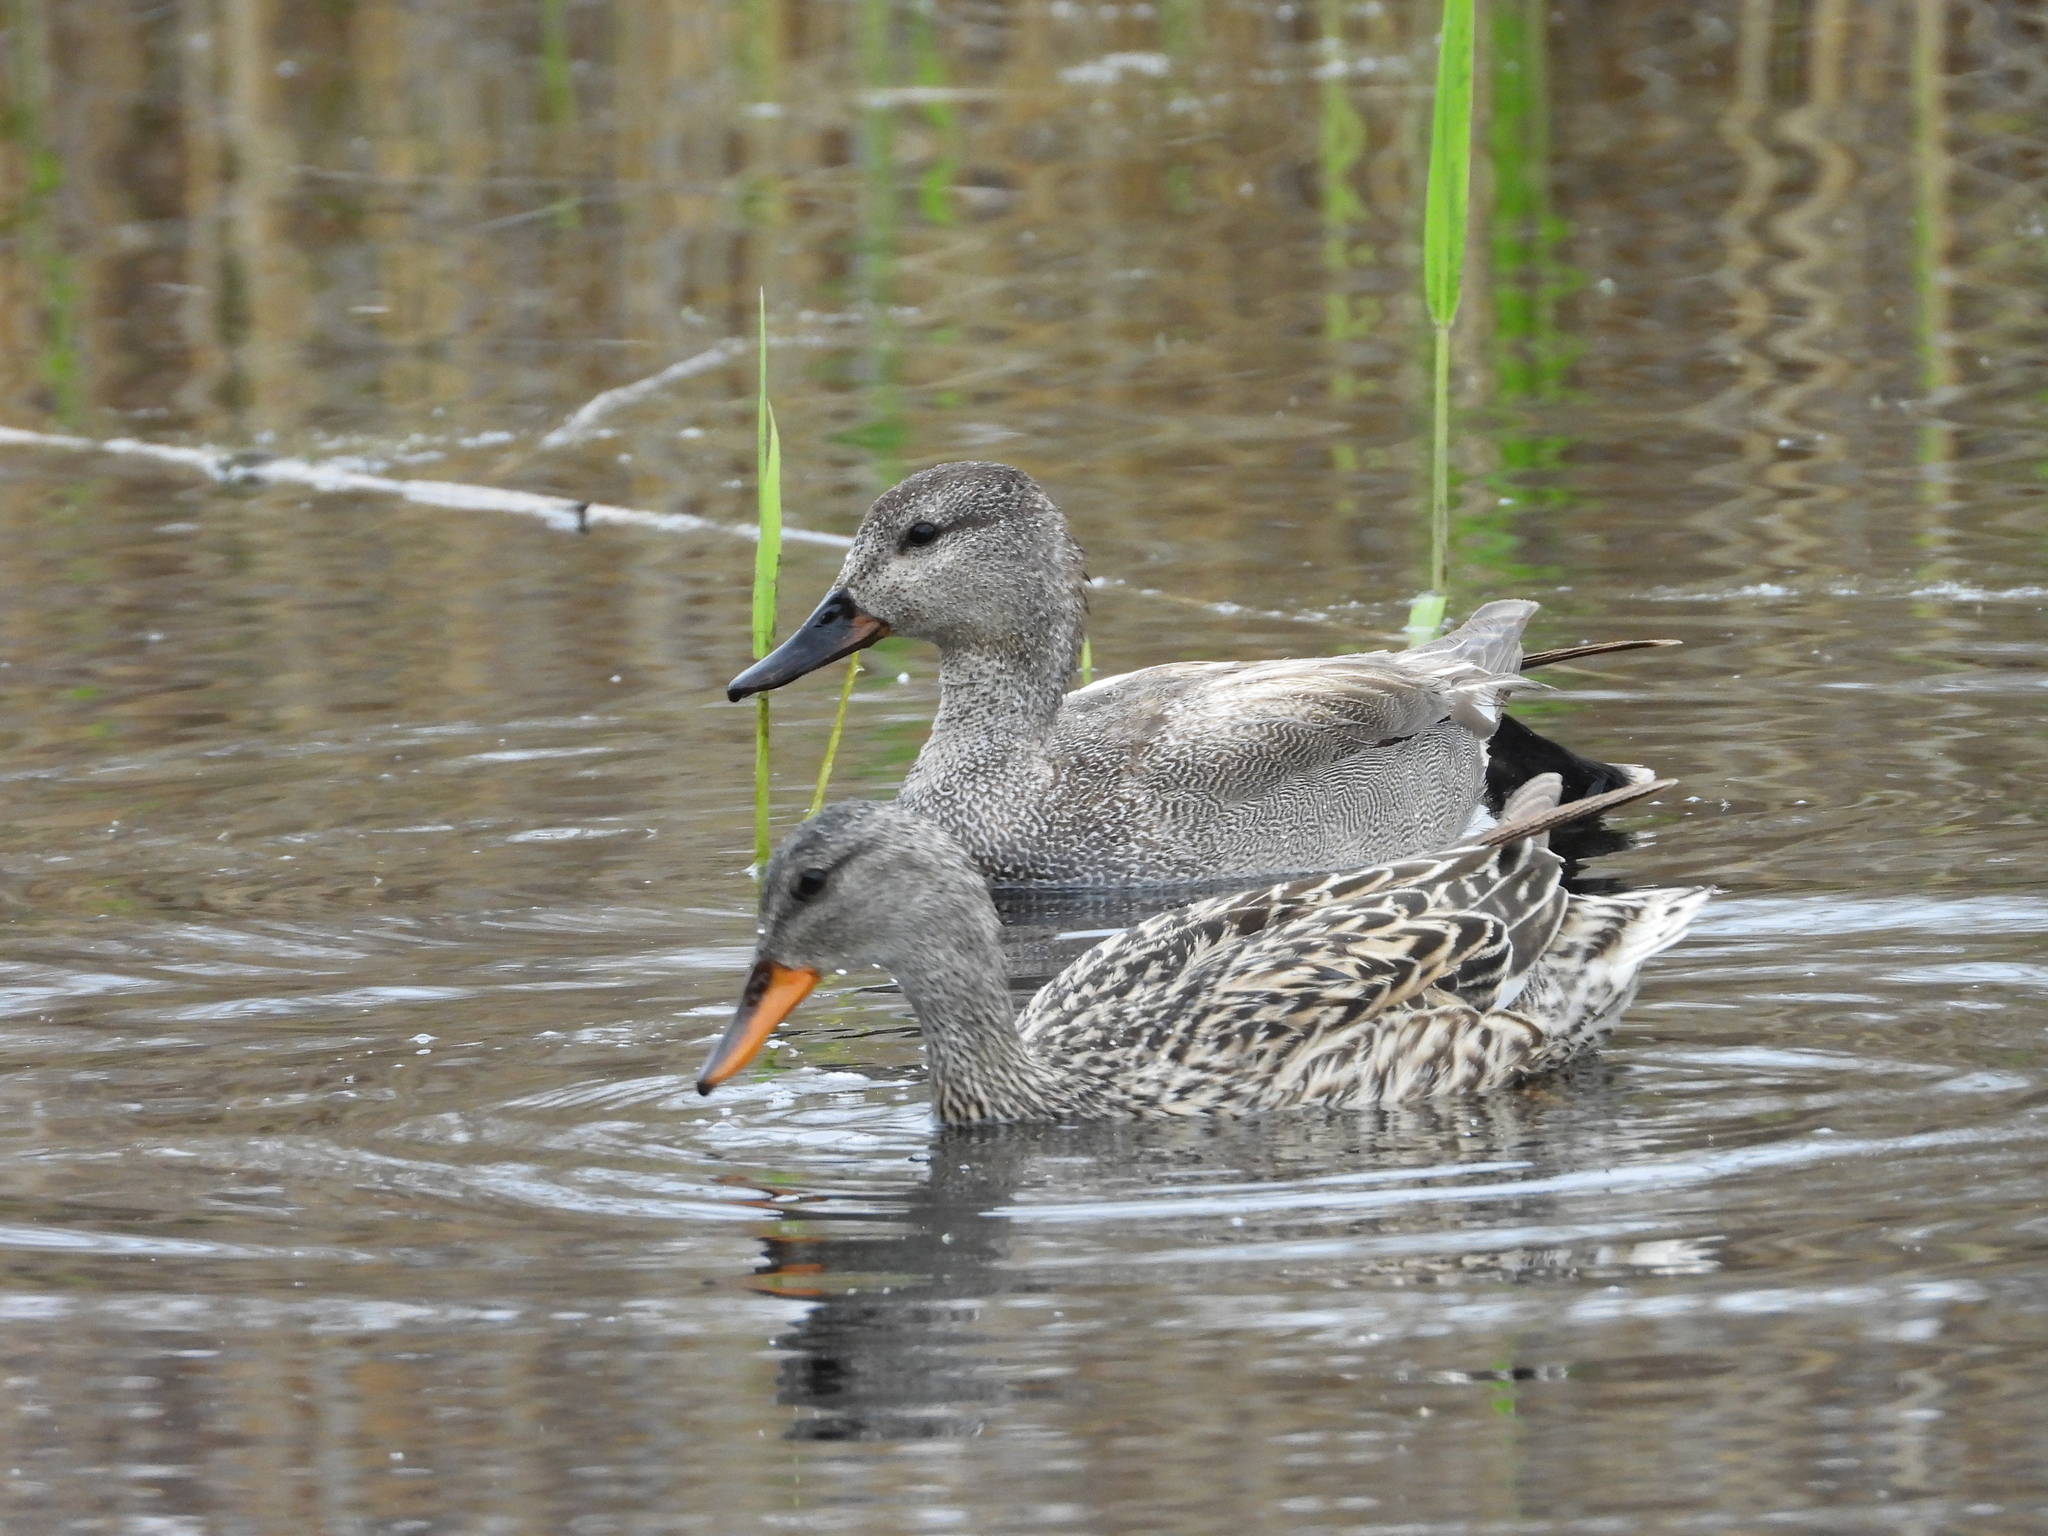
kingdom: Animalia
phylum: Chordata
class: Aves
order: Anseriformes
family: Anatidae
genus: Mareca
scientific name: Mareca strepera
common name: Gadwall
